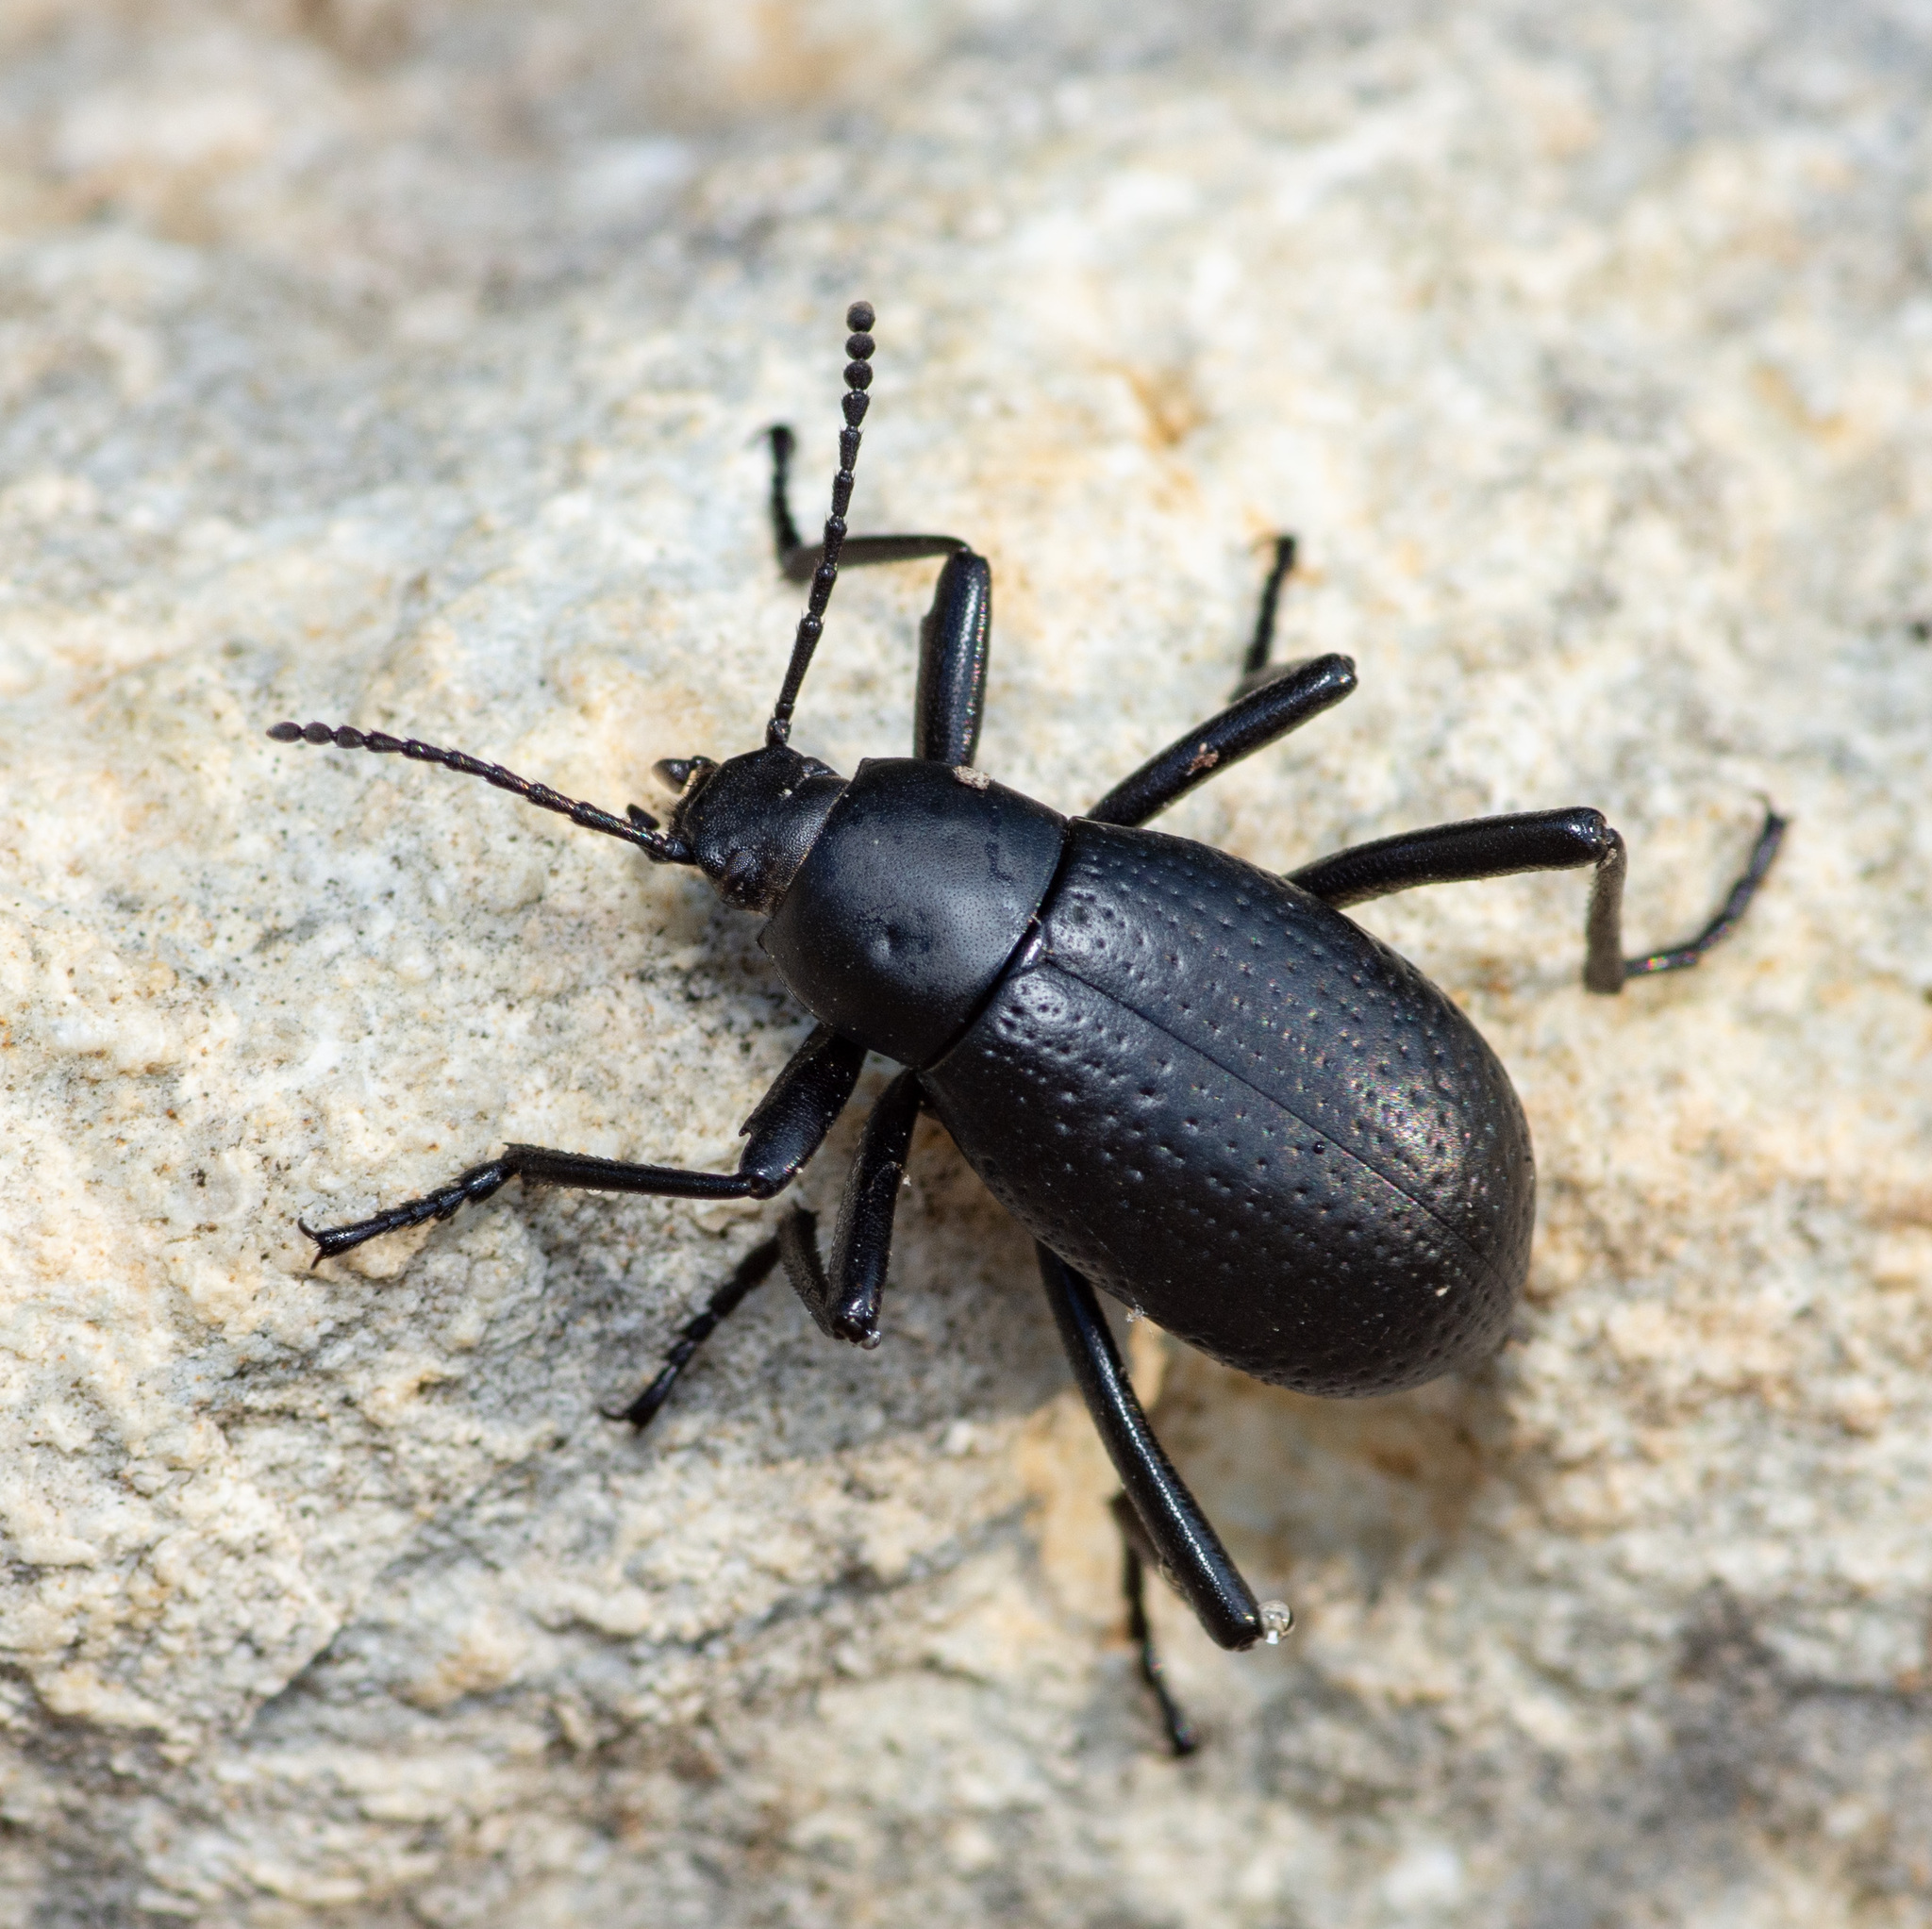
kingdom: Animalia
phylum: Arthropoda
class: Insecta
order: Coleoptera
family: Tenebrionidae
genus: Eleodes
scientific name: Eleodes goryi
